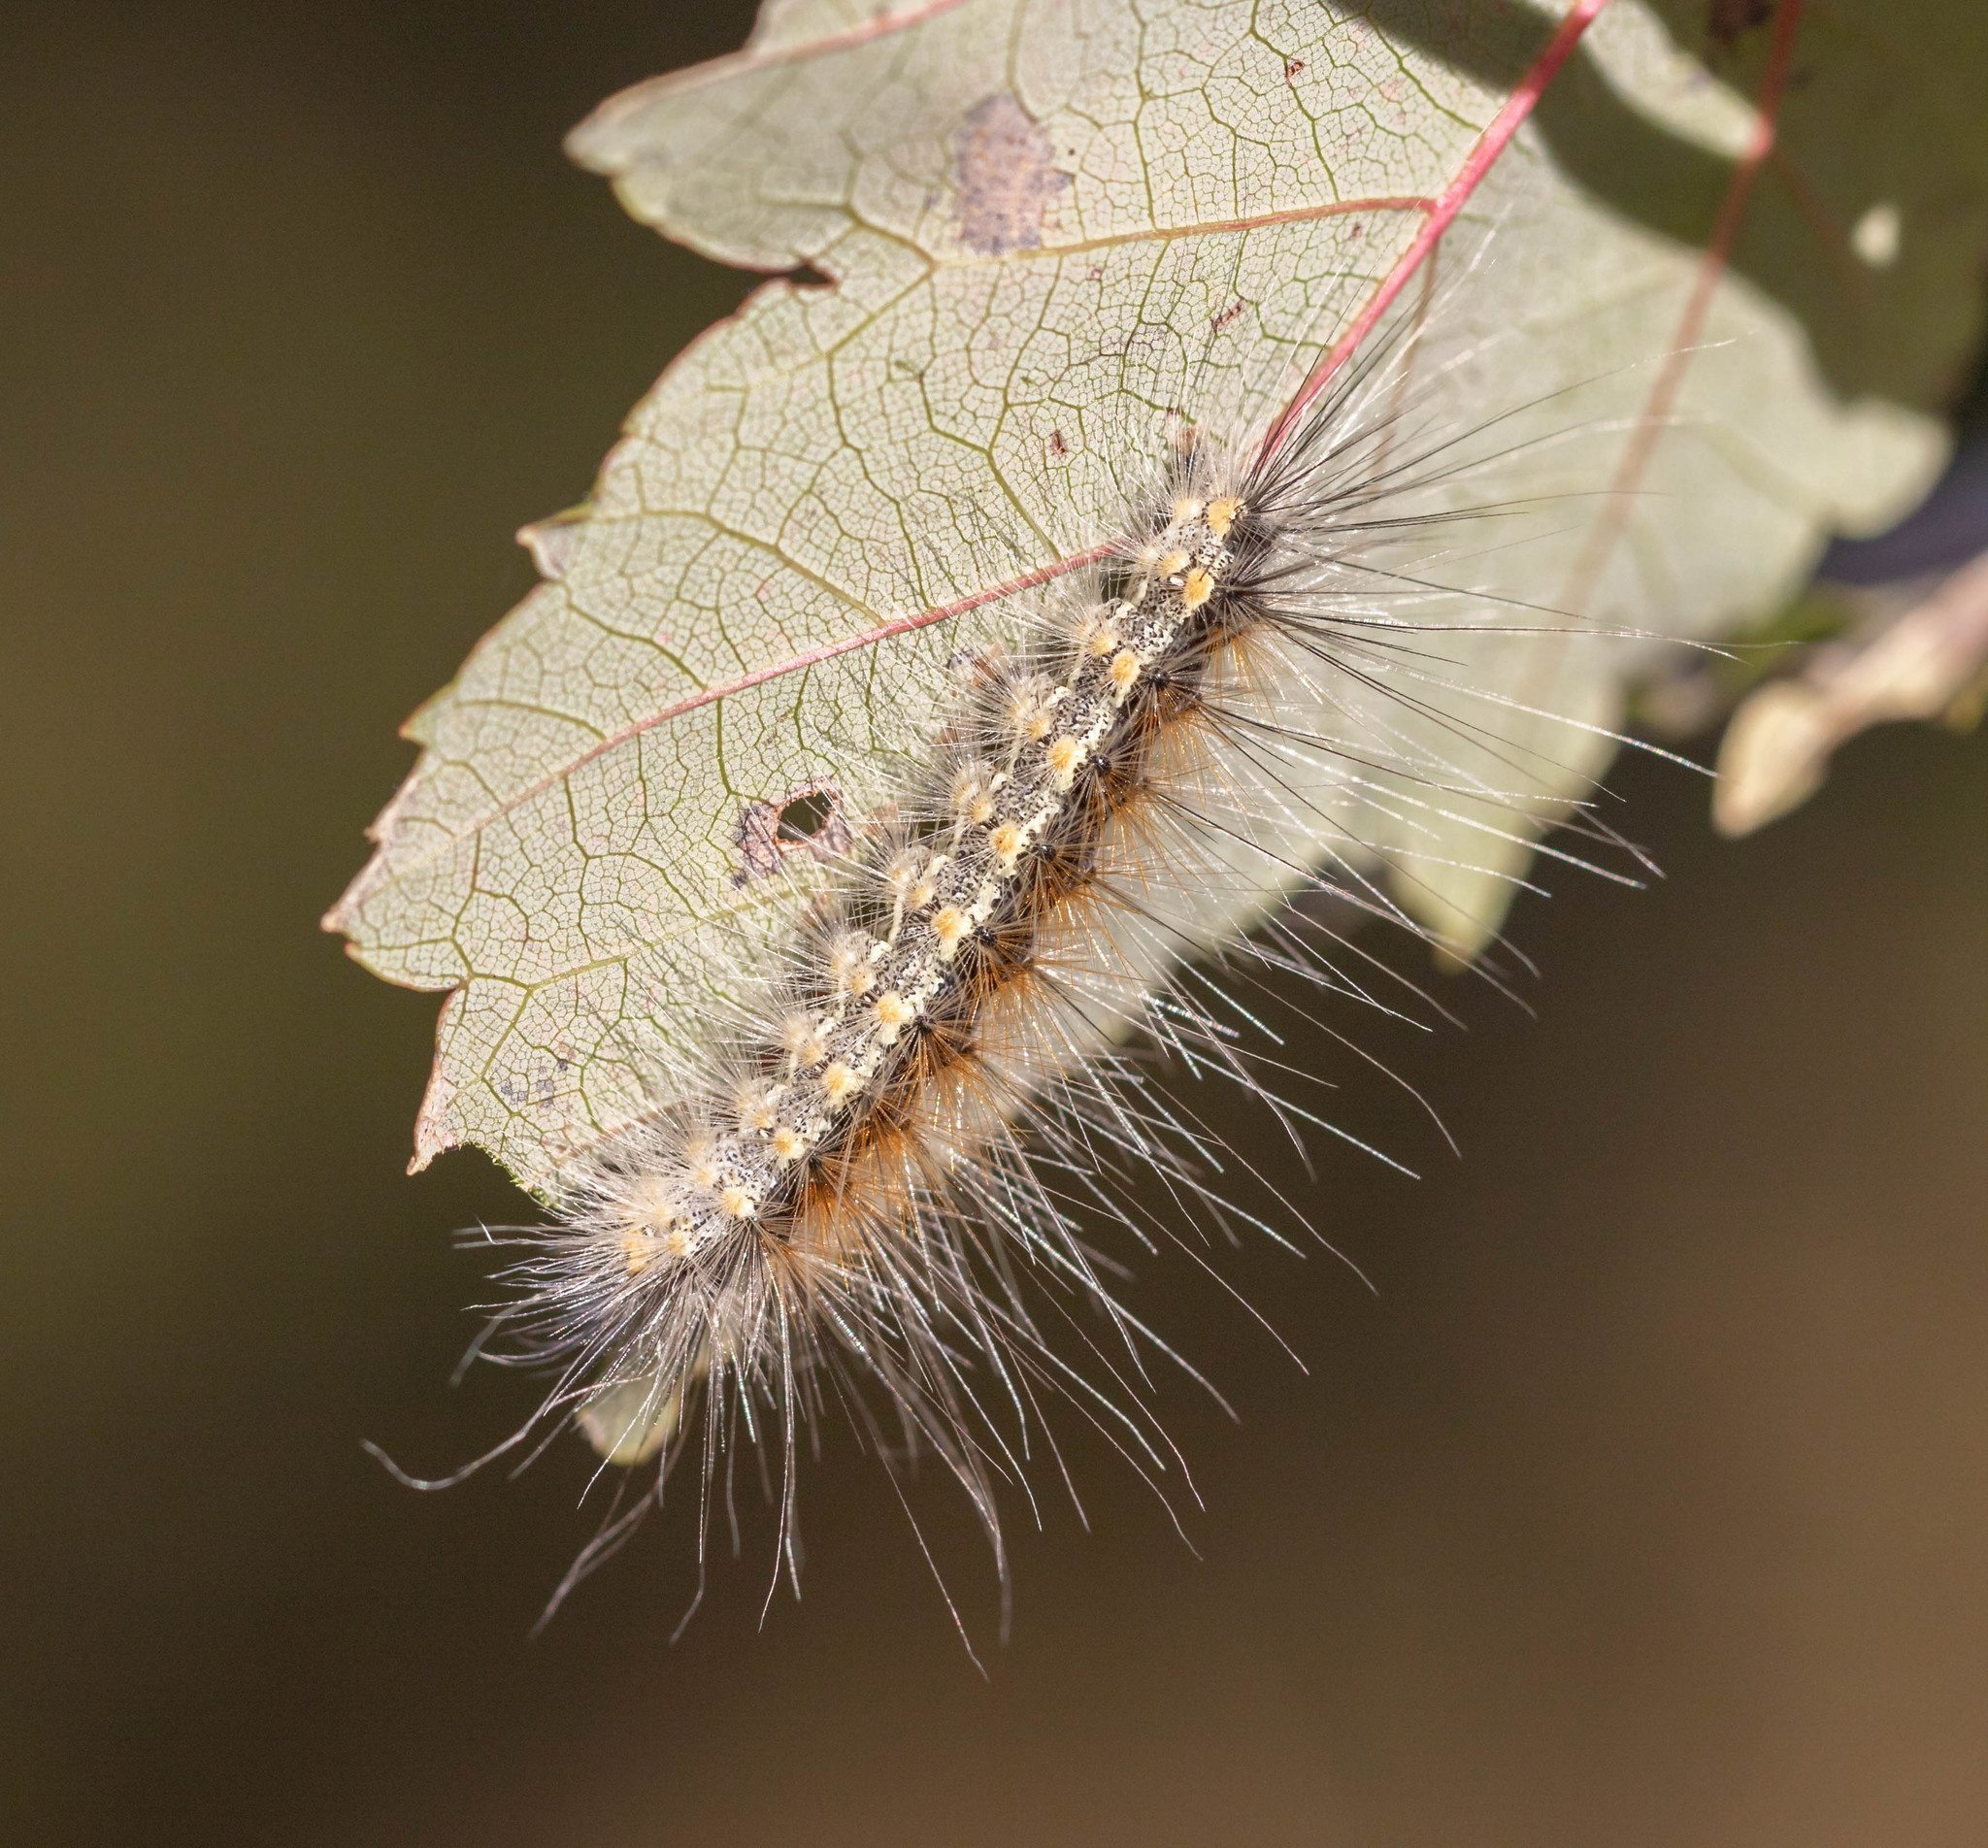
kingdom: Animalia
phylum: Arthropoda
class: Insecta
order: Lepidoptera
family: Erebidae
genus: Hyphantria
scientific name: Hyphantria cunea
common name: American white moth
